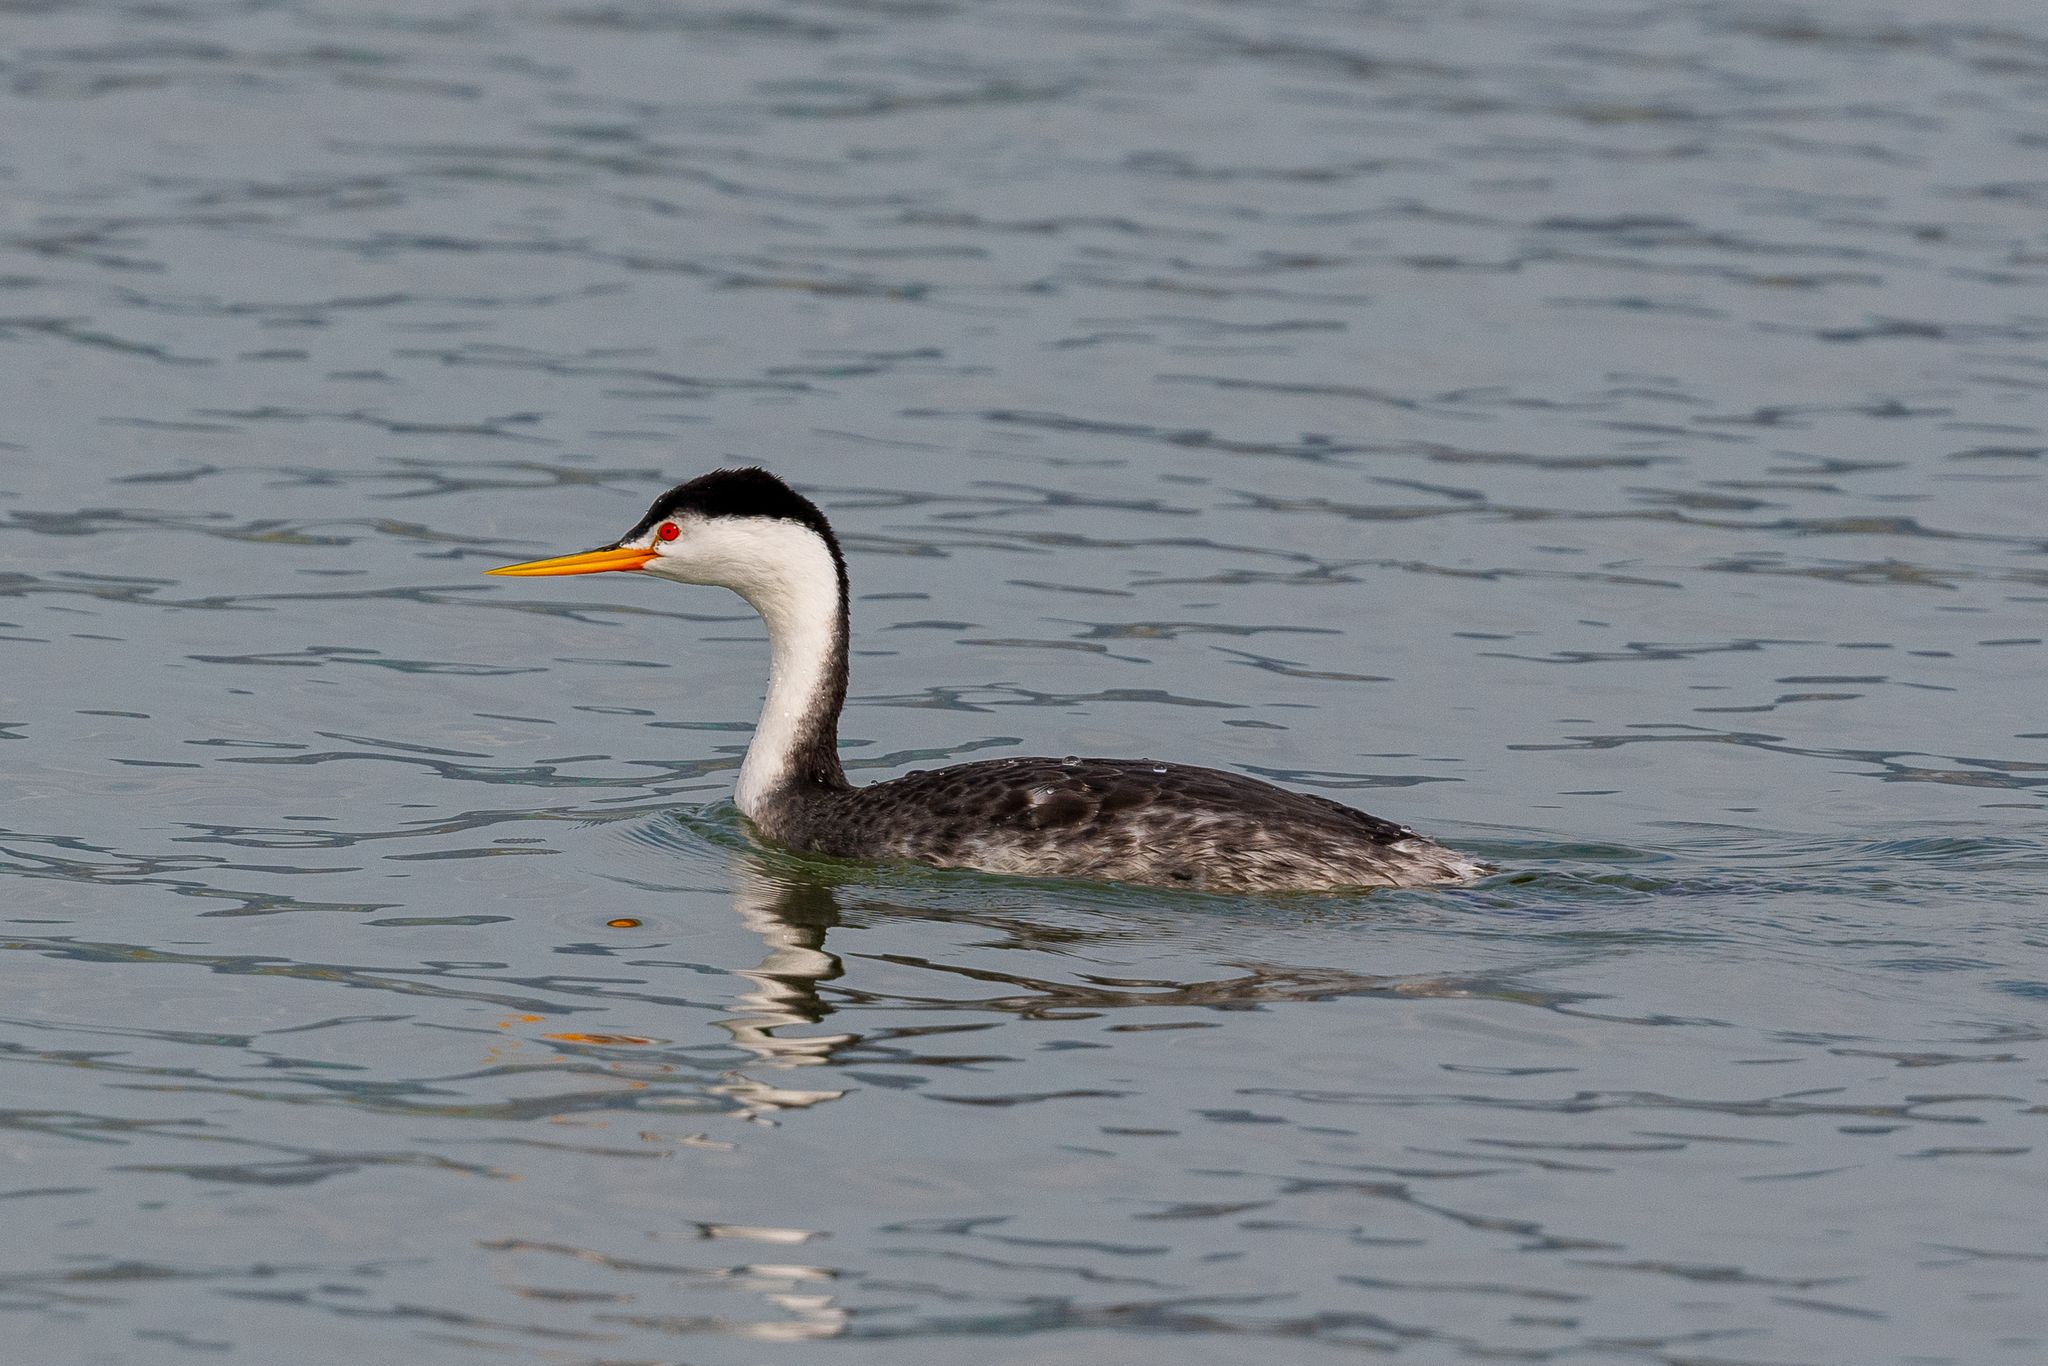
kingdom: Animalia
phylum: Chordata
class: Aves
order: Podicipediformes
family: Podicipedidae
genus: Aechmophorus
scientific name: Aechmophorus clarkii
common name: Clark's grebe
